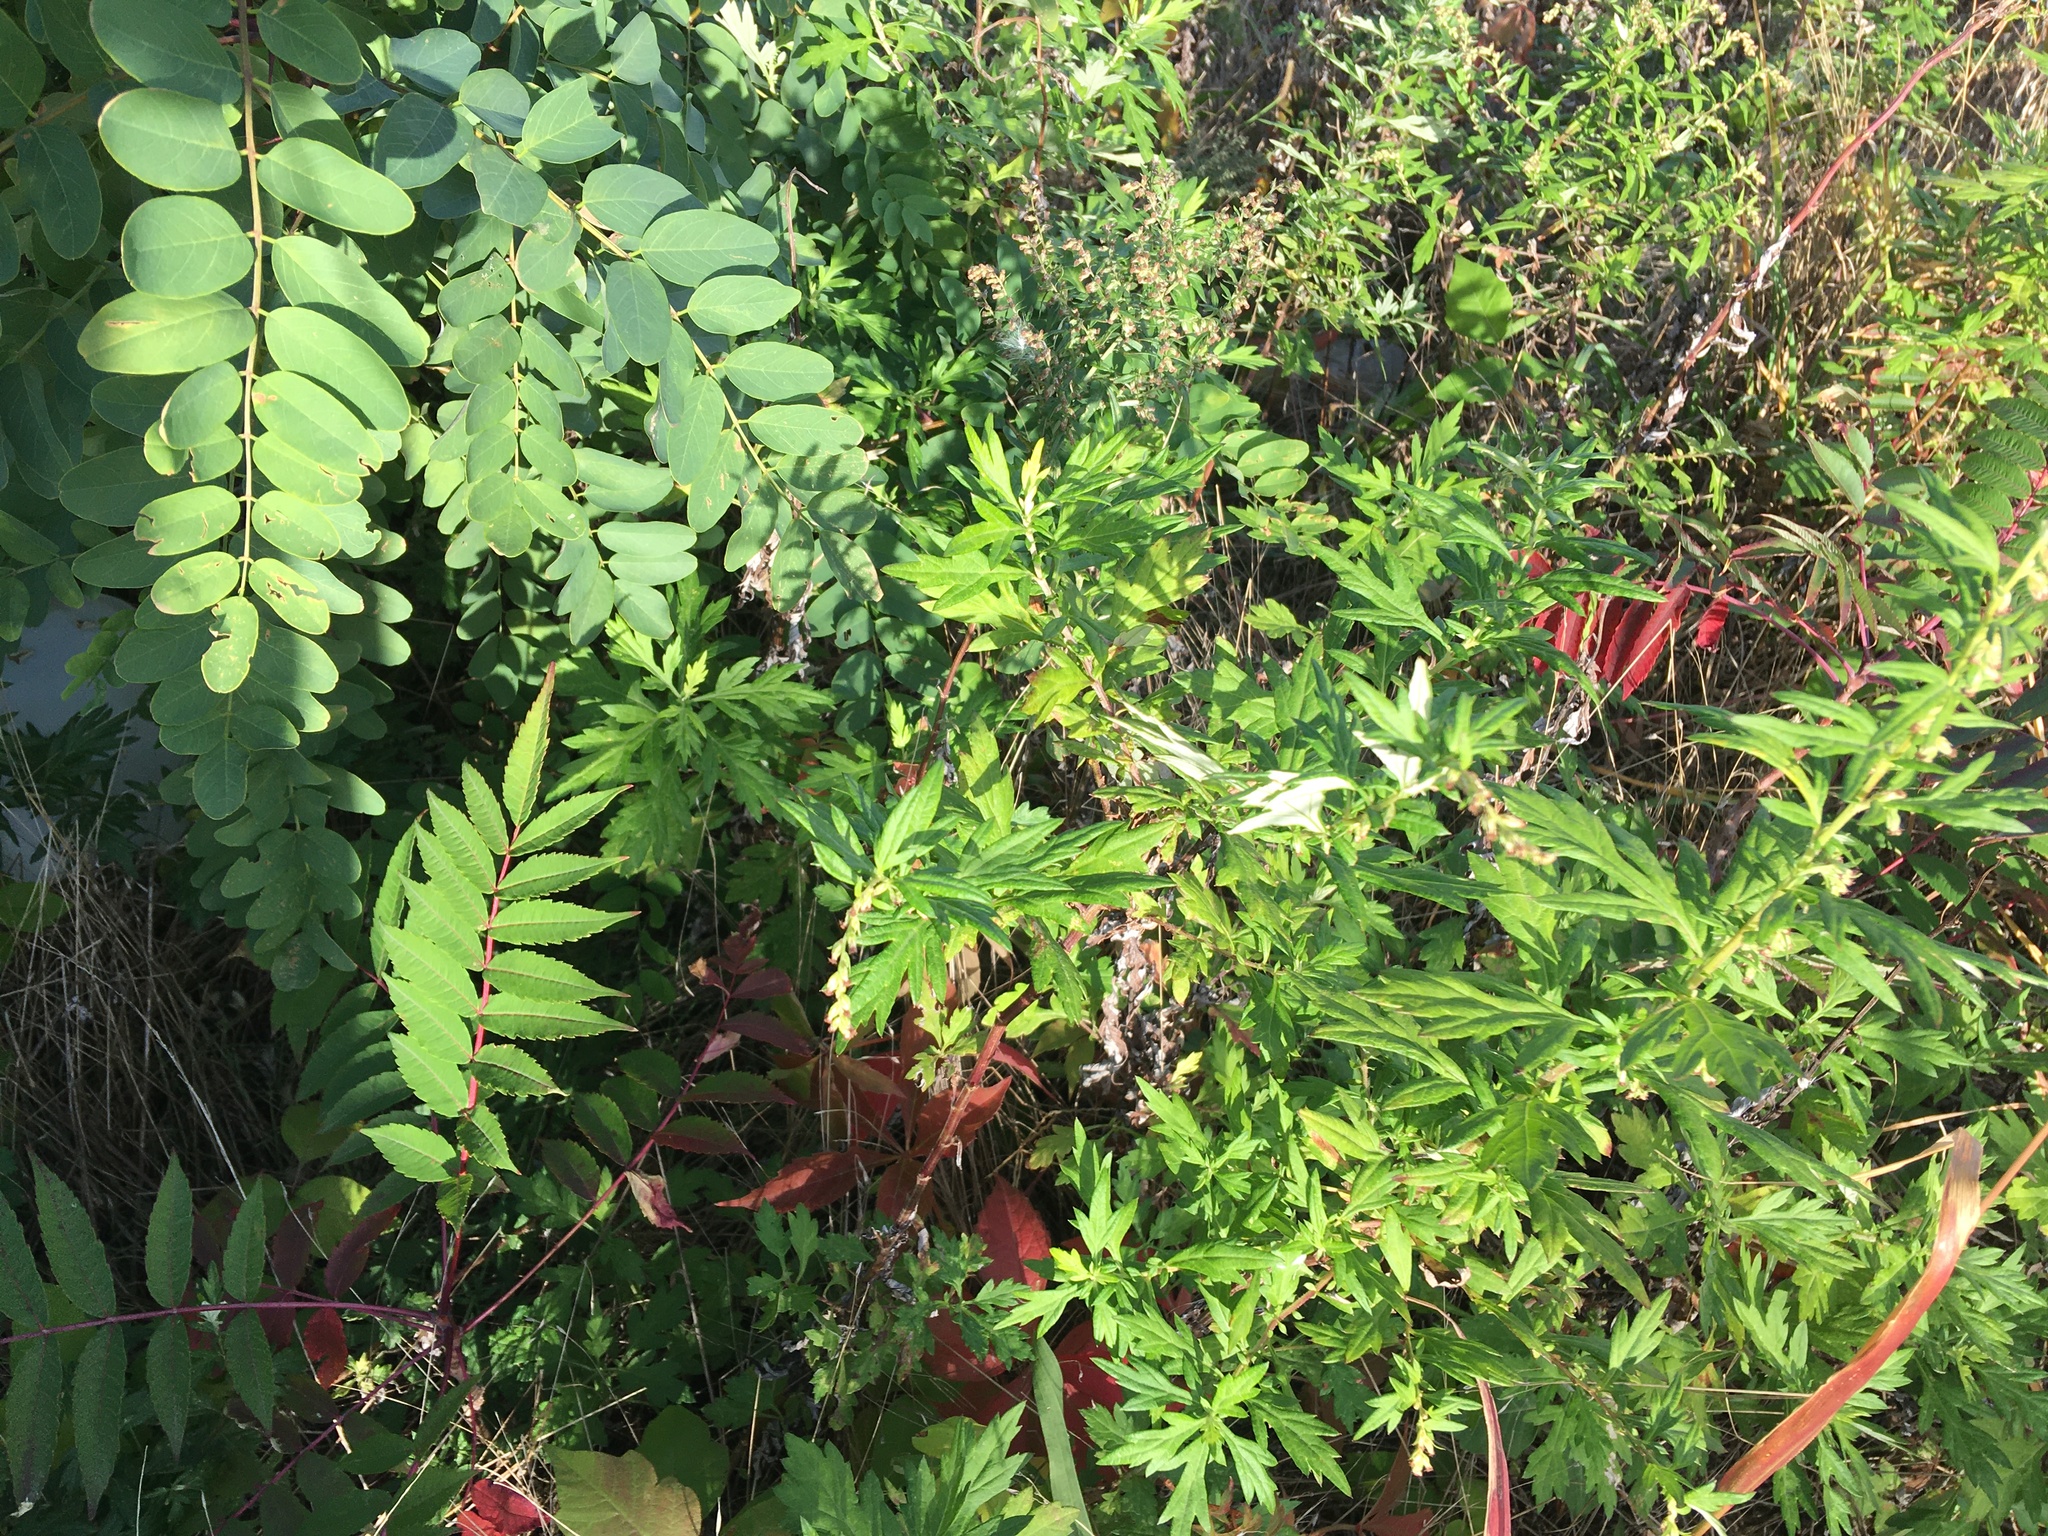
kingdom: Plantae
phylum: Tracheophyta
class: Magnoliopsida
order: Asterales
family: Asteraceae
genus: Artemisia
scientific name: Artemisia vulgaris
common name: Mugwort
